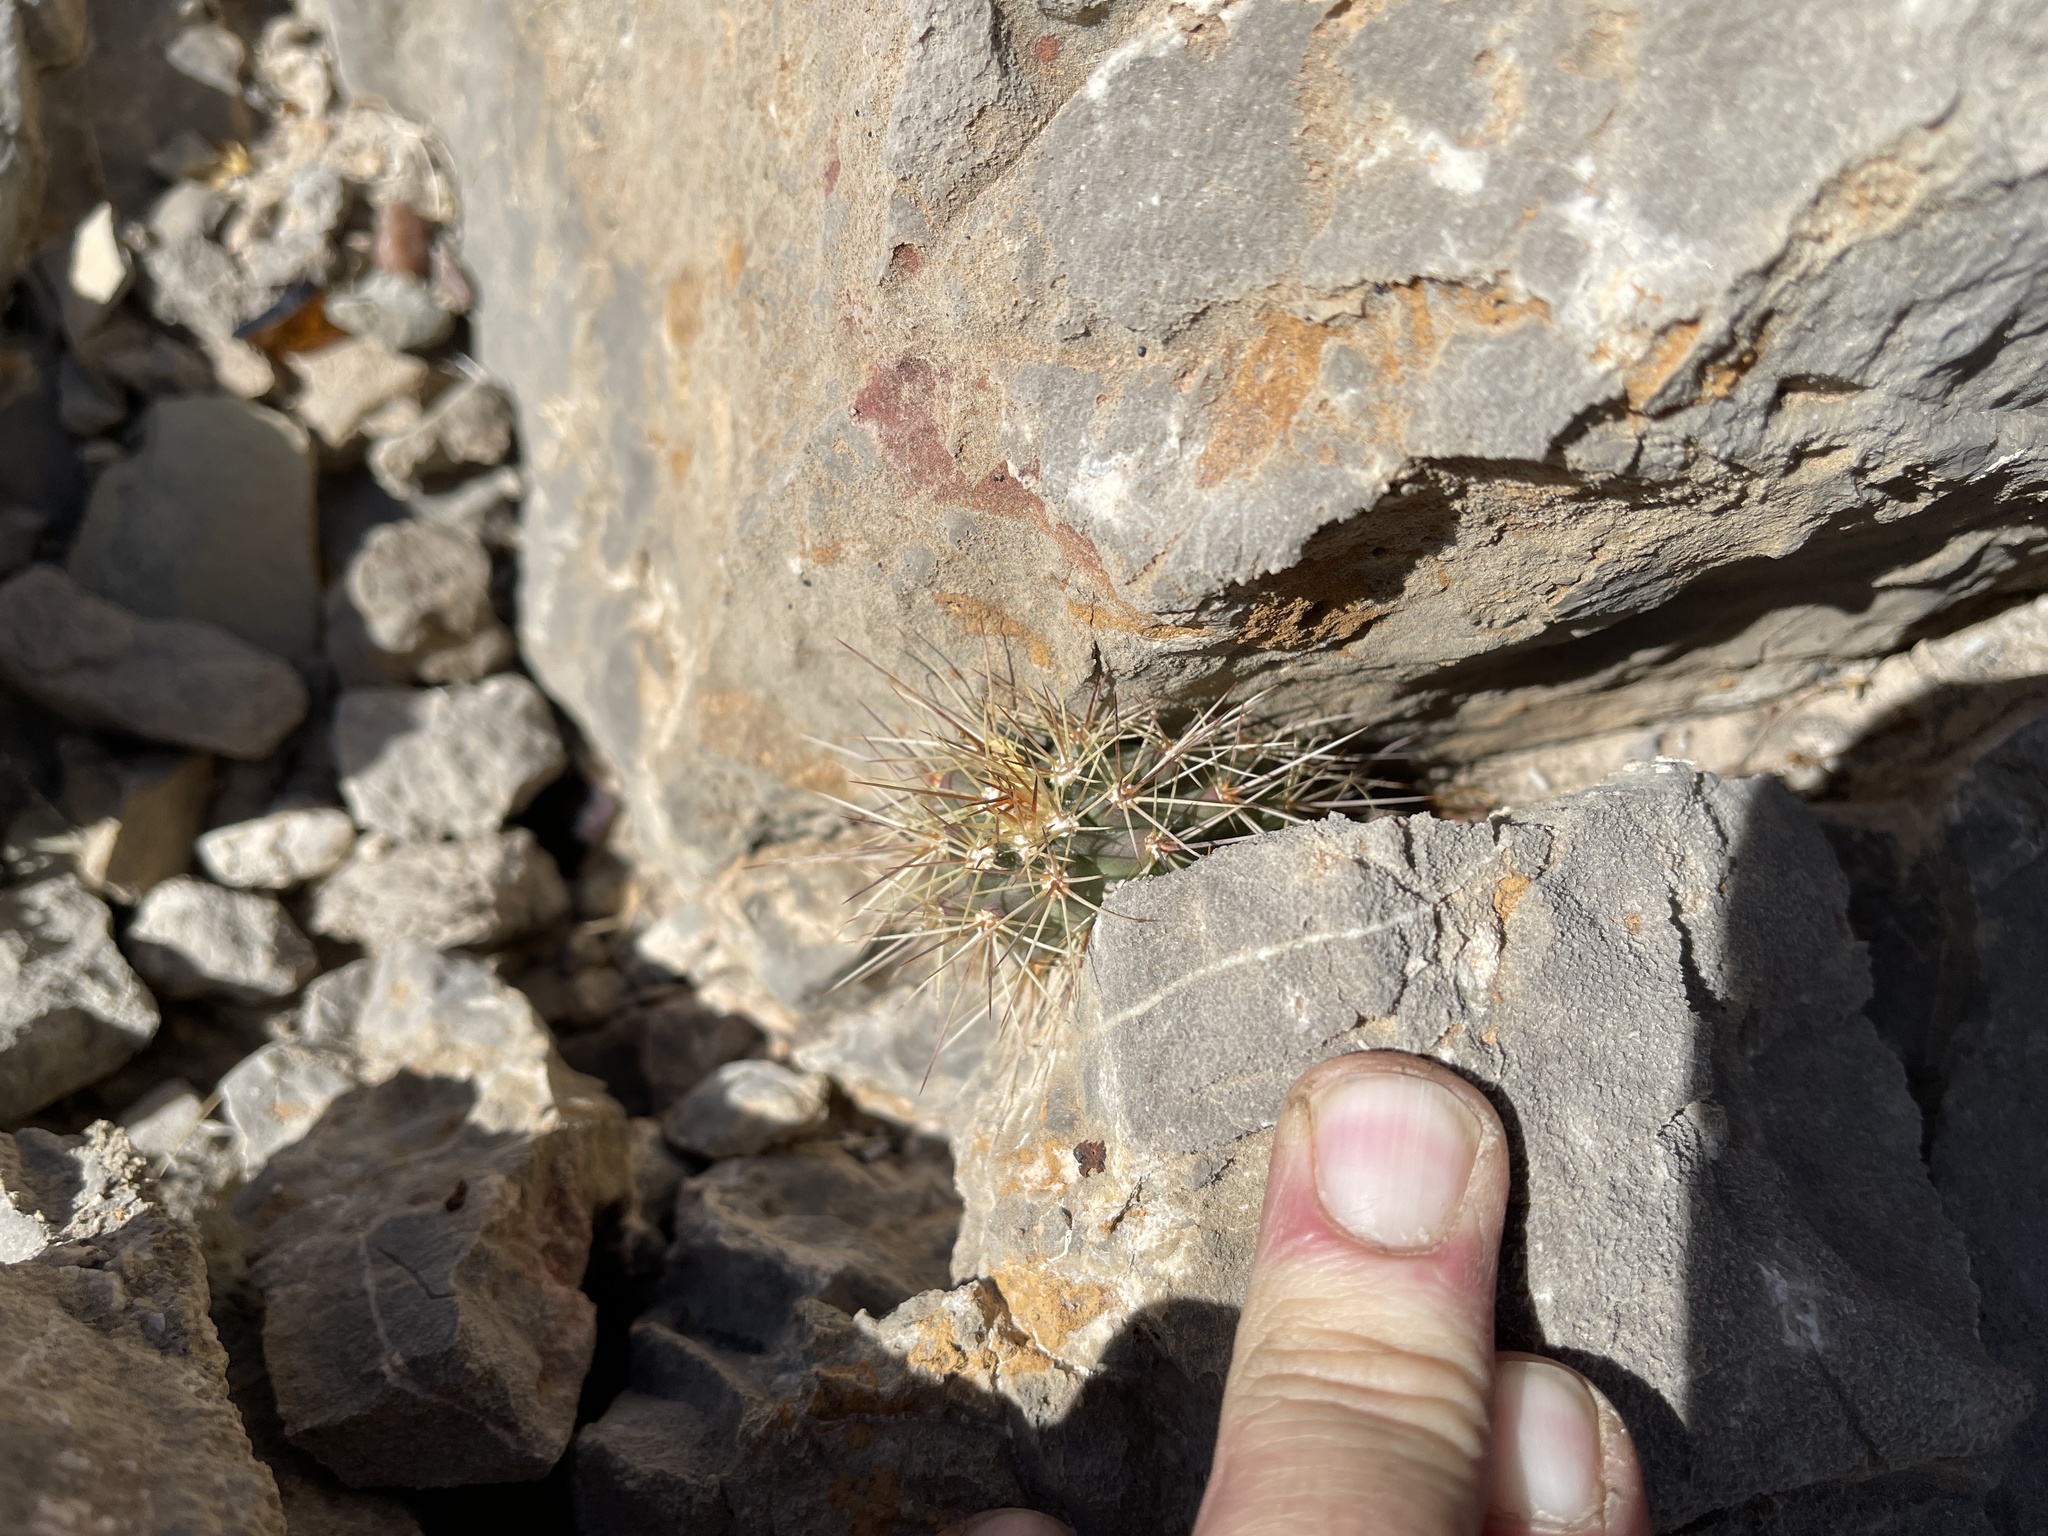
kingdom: Plantae
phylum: Tracheophyta
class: Magnoliopsida
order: Caryophyllales
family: Cactaceae
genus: Echinocereus
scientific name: Echinocereus coccineus
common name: Scarlet hedgehog cactus
